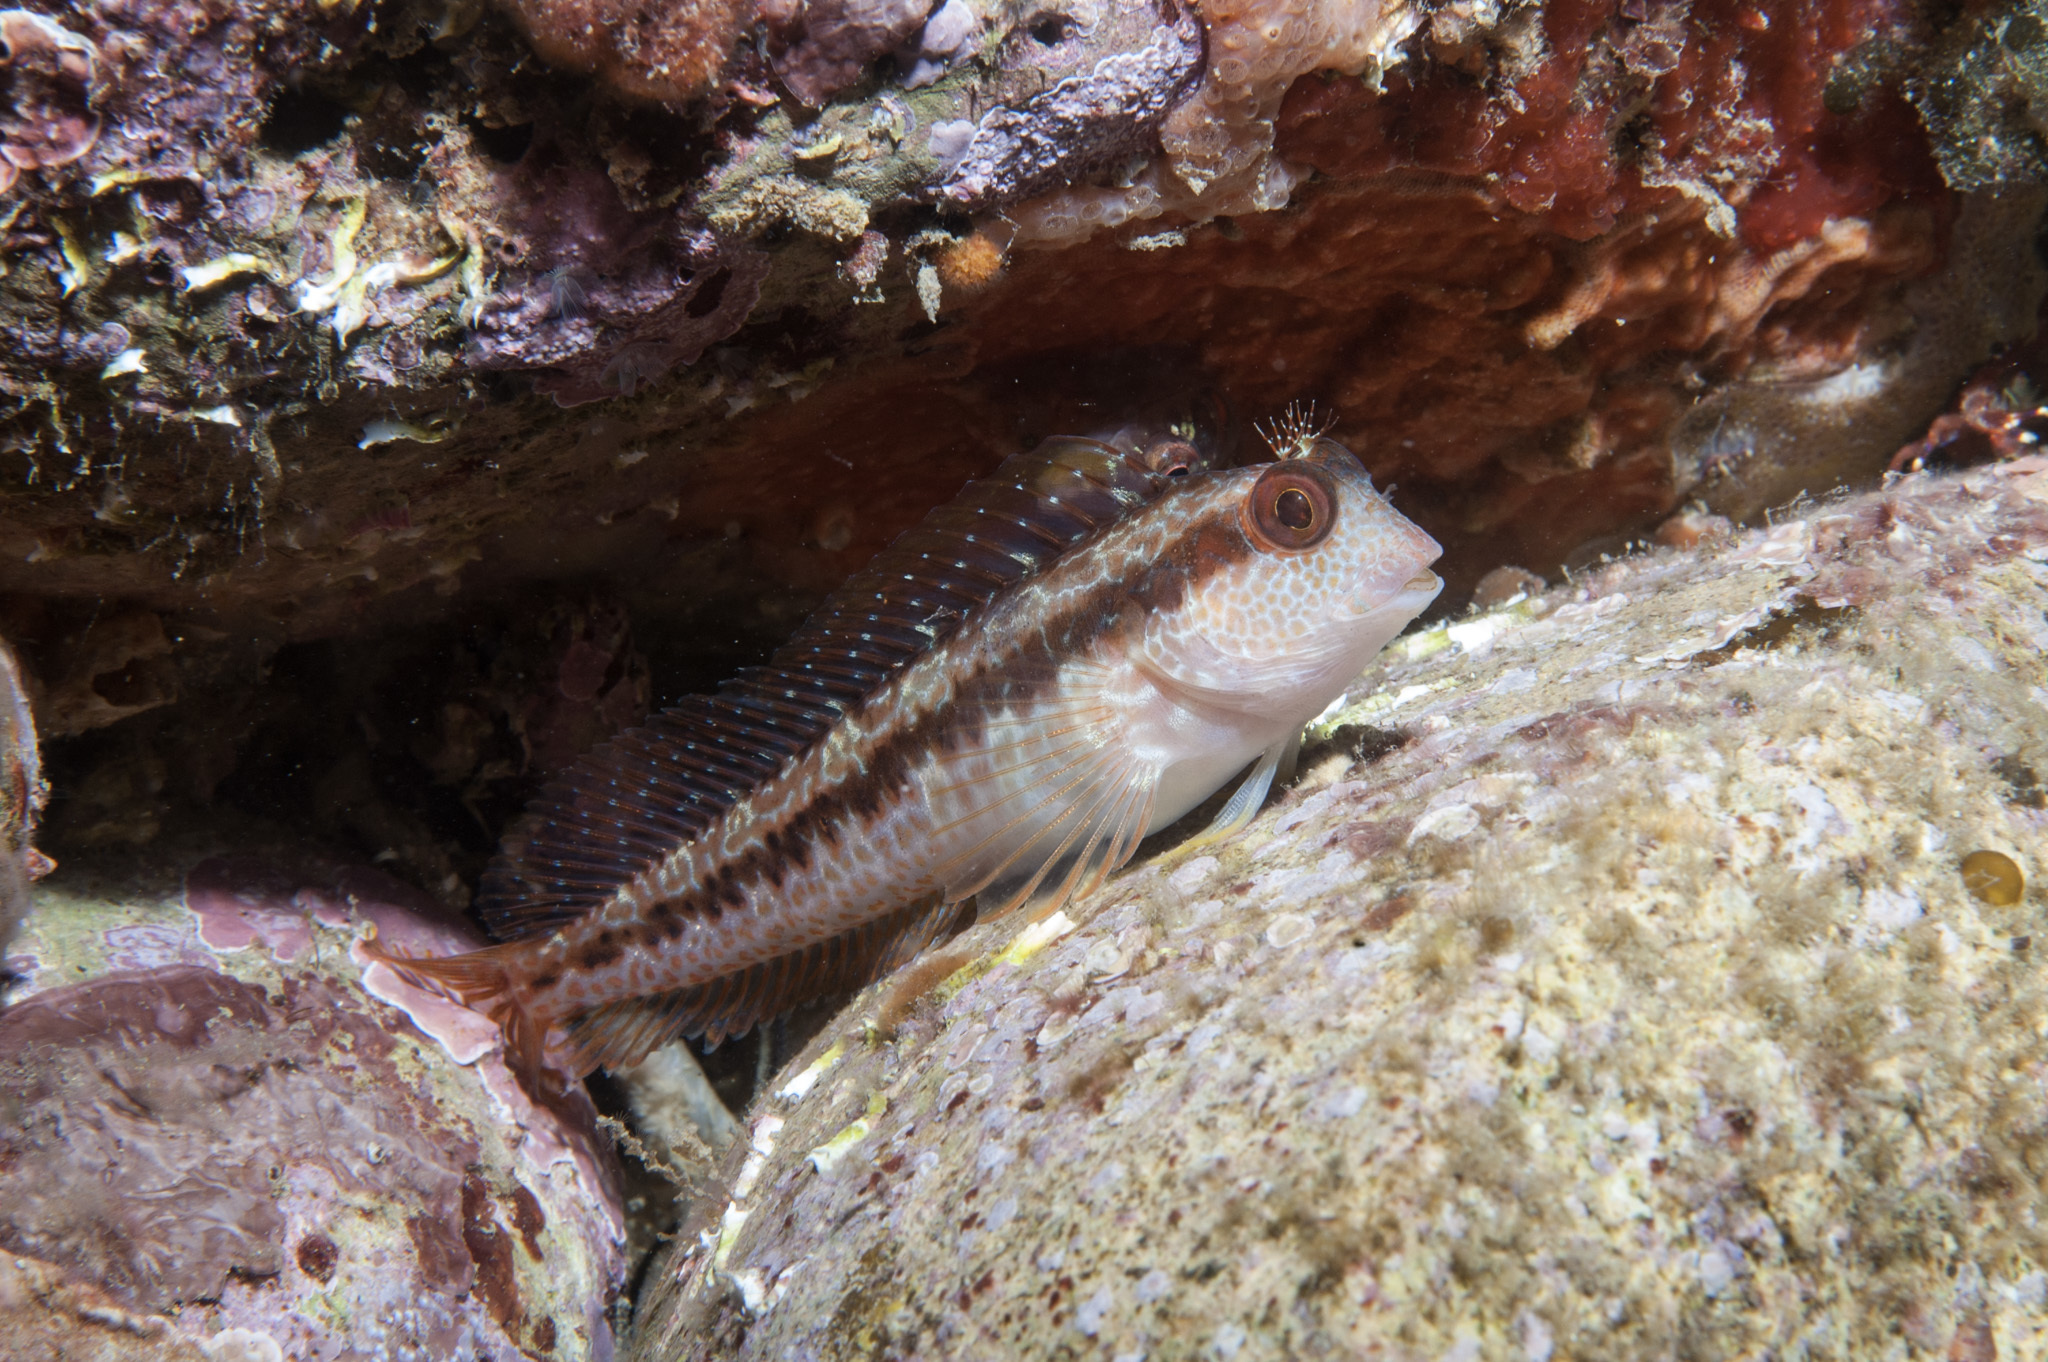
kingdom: Animalia
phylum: Chordata
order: Perciformes
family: Blenniidae
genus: Parablennius
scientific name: Parablennius pilicornis
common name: Ringneck blenny
